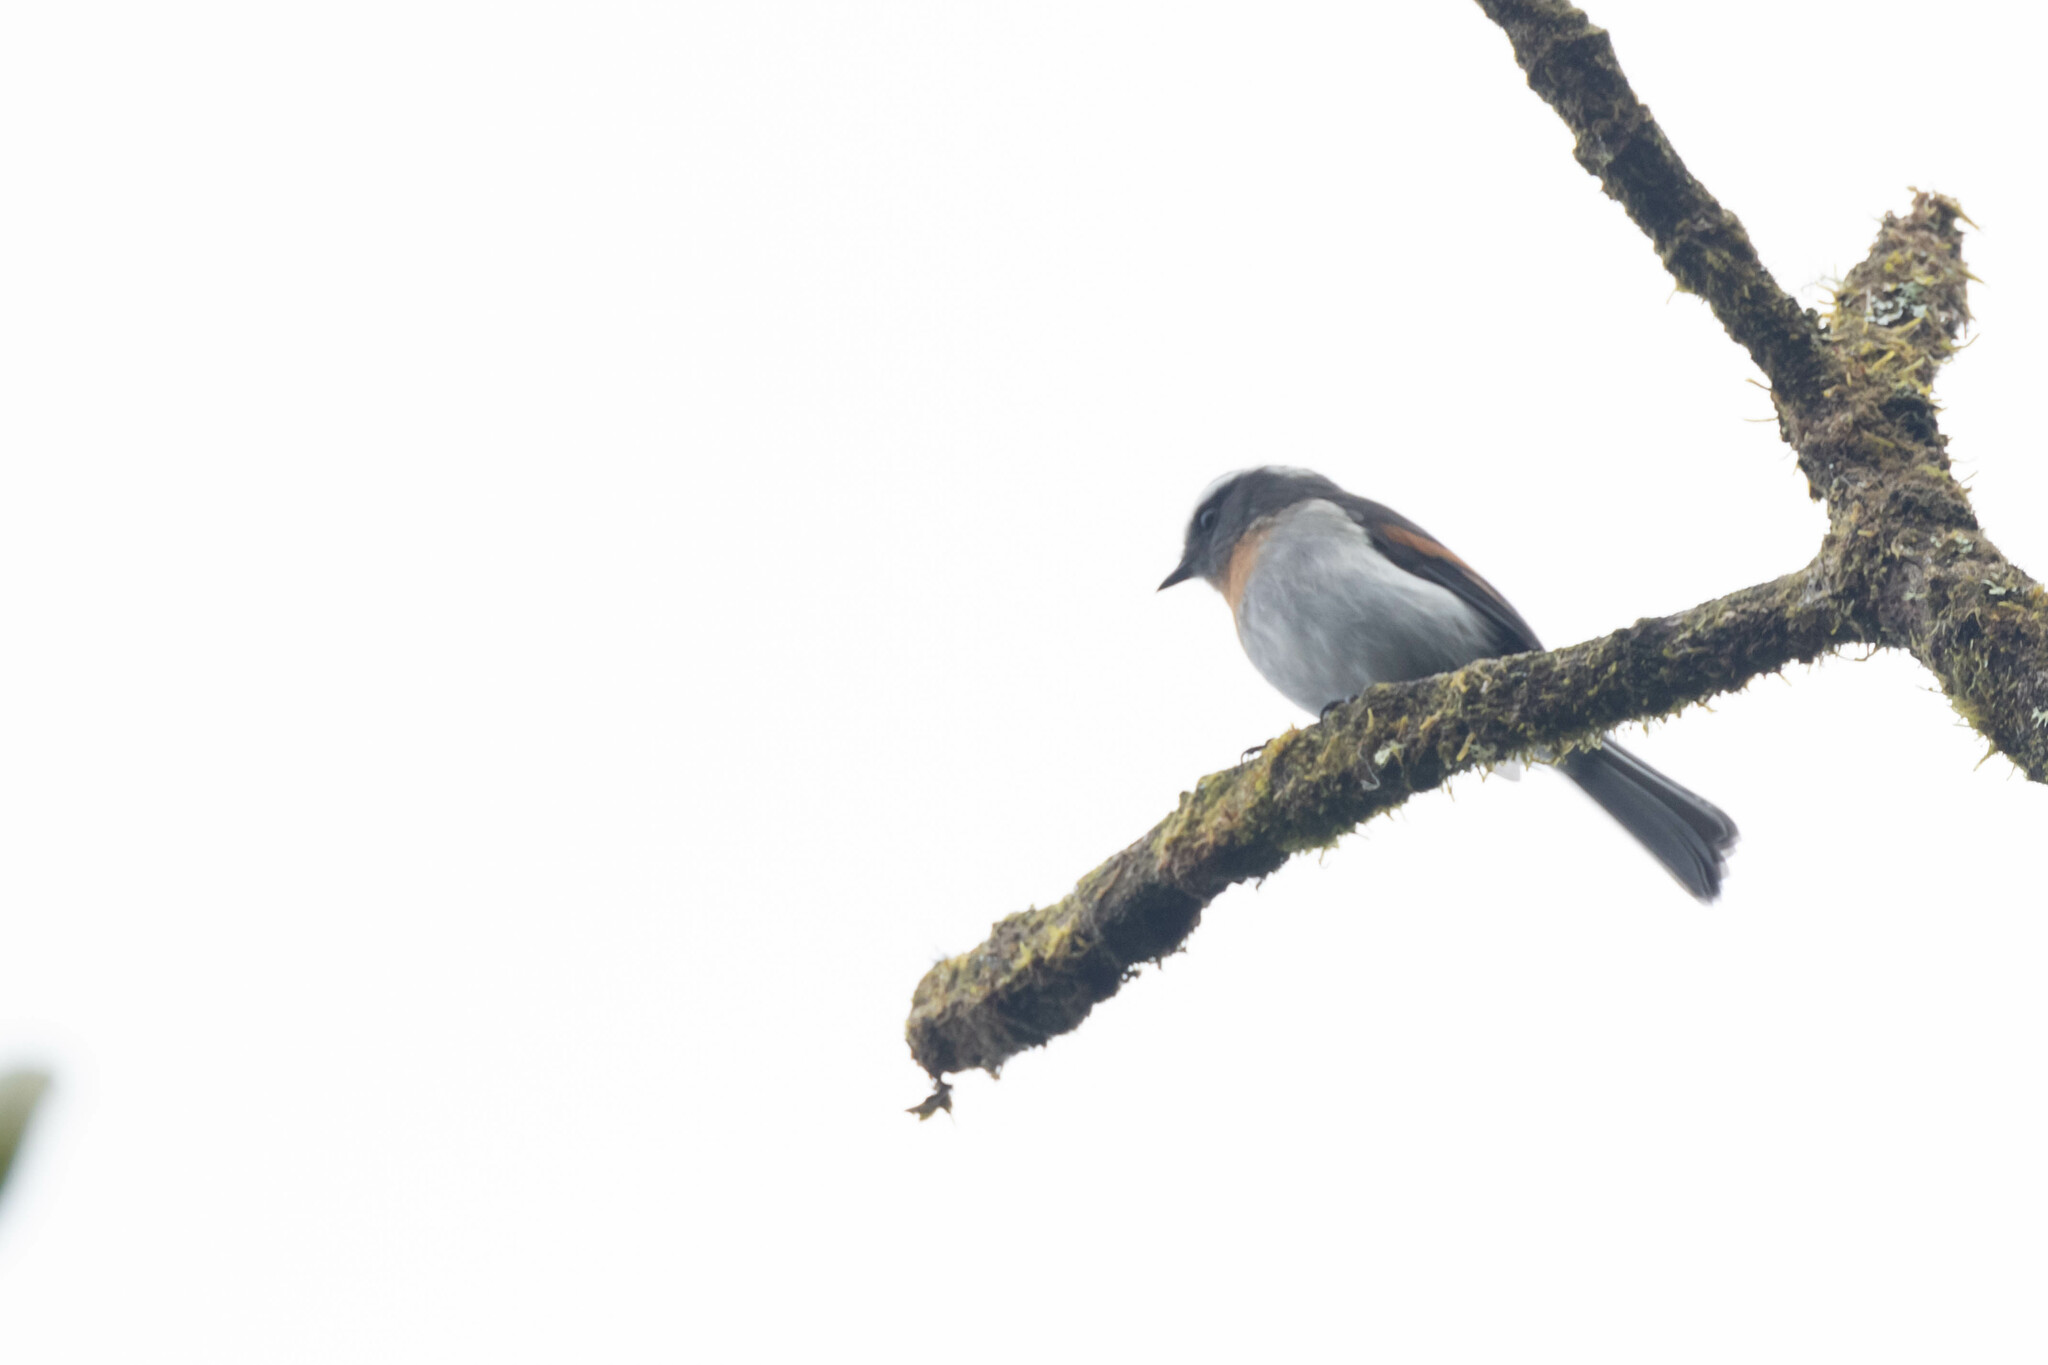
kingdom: Animalia
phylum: Chordata
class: Aves
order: Passeriformes
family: Tyrannidae
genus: Ochthoeca
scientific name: Ochthoeca rufipectoralis
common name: Rufous-breasted chat-tyrant
